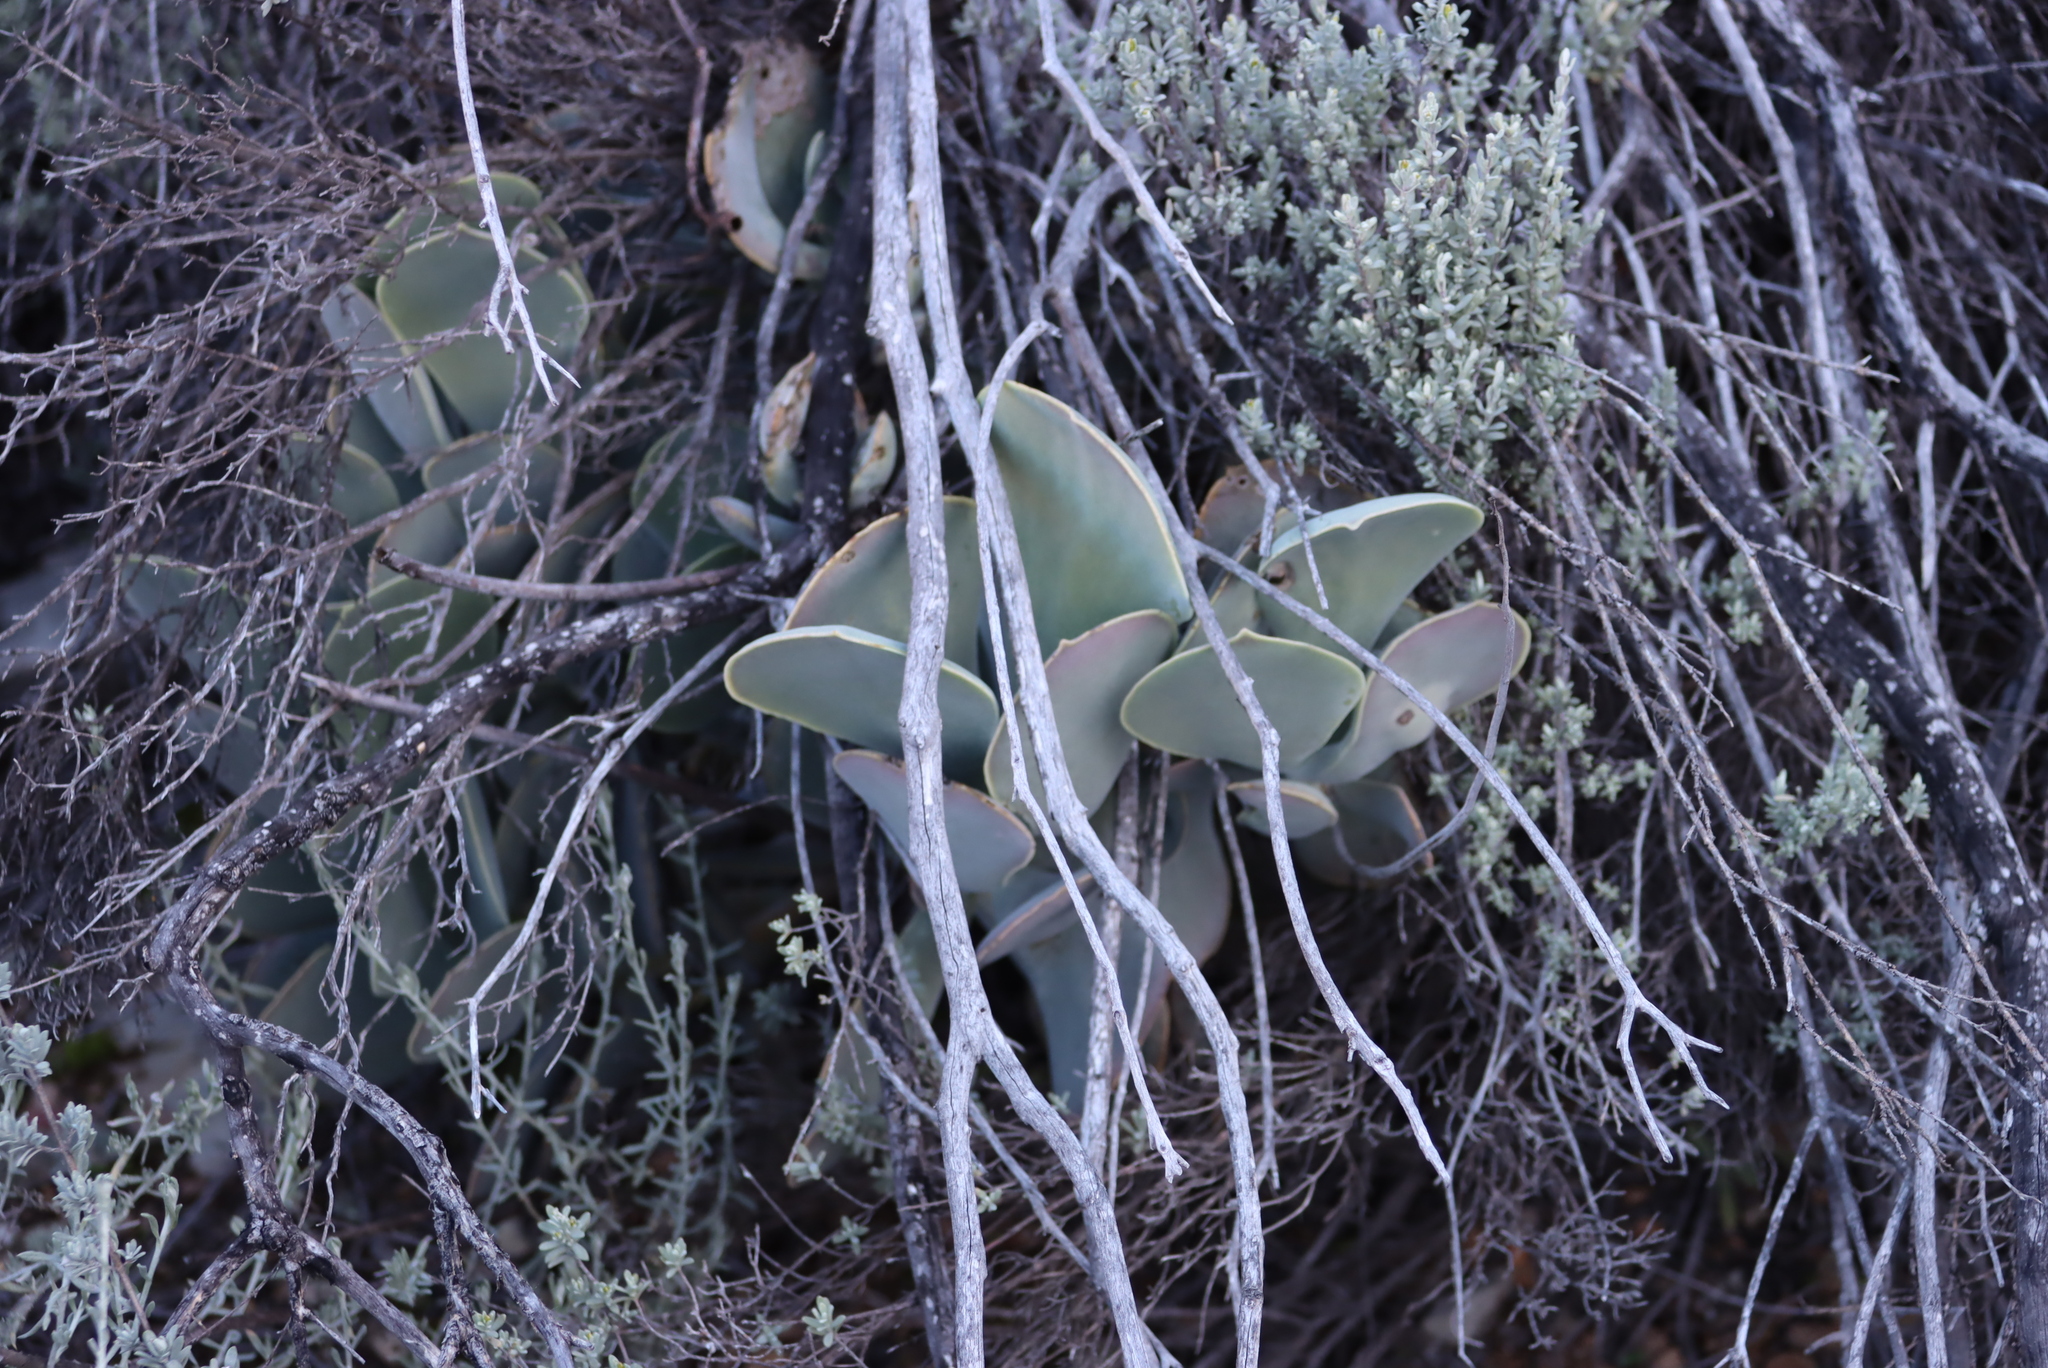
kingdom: Plantae
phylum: Tracheophyta
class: Magnoliopsida
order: Saxifragales
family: Crassulaceae
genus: Cotyledon
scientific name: Cotyledon orbiculata
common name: Pig's ear
